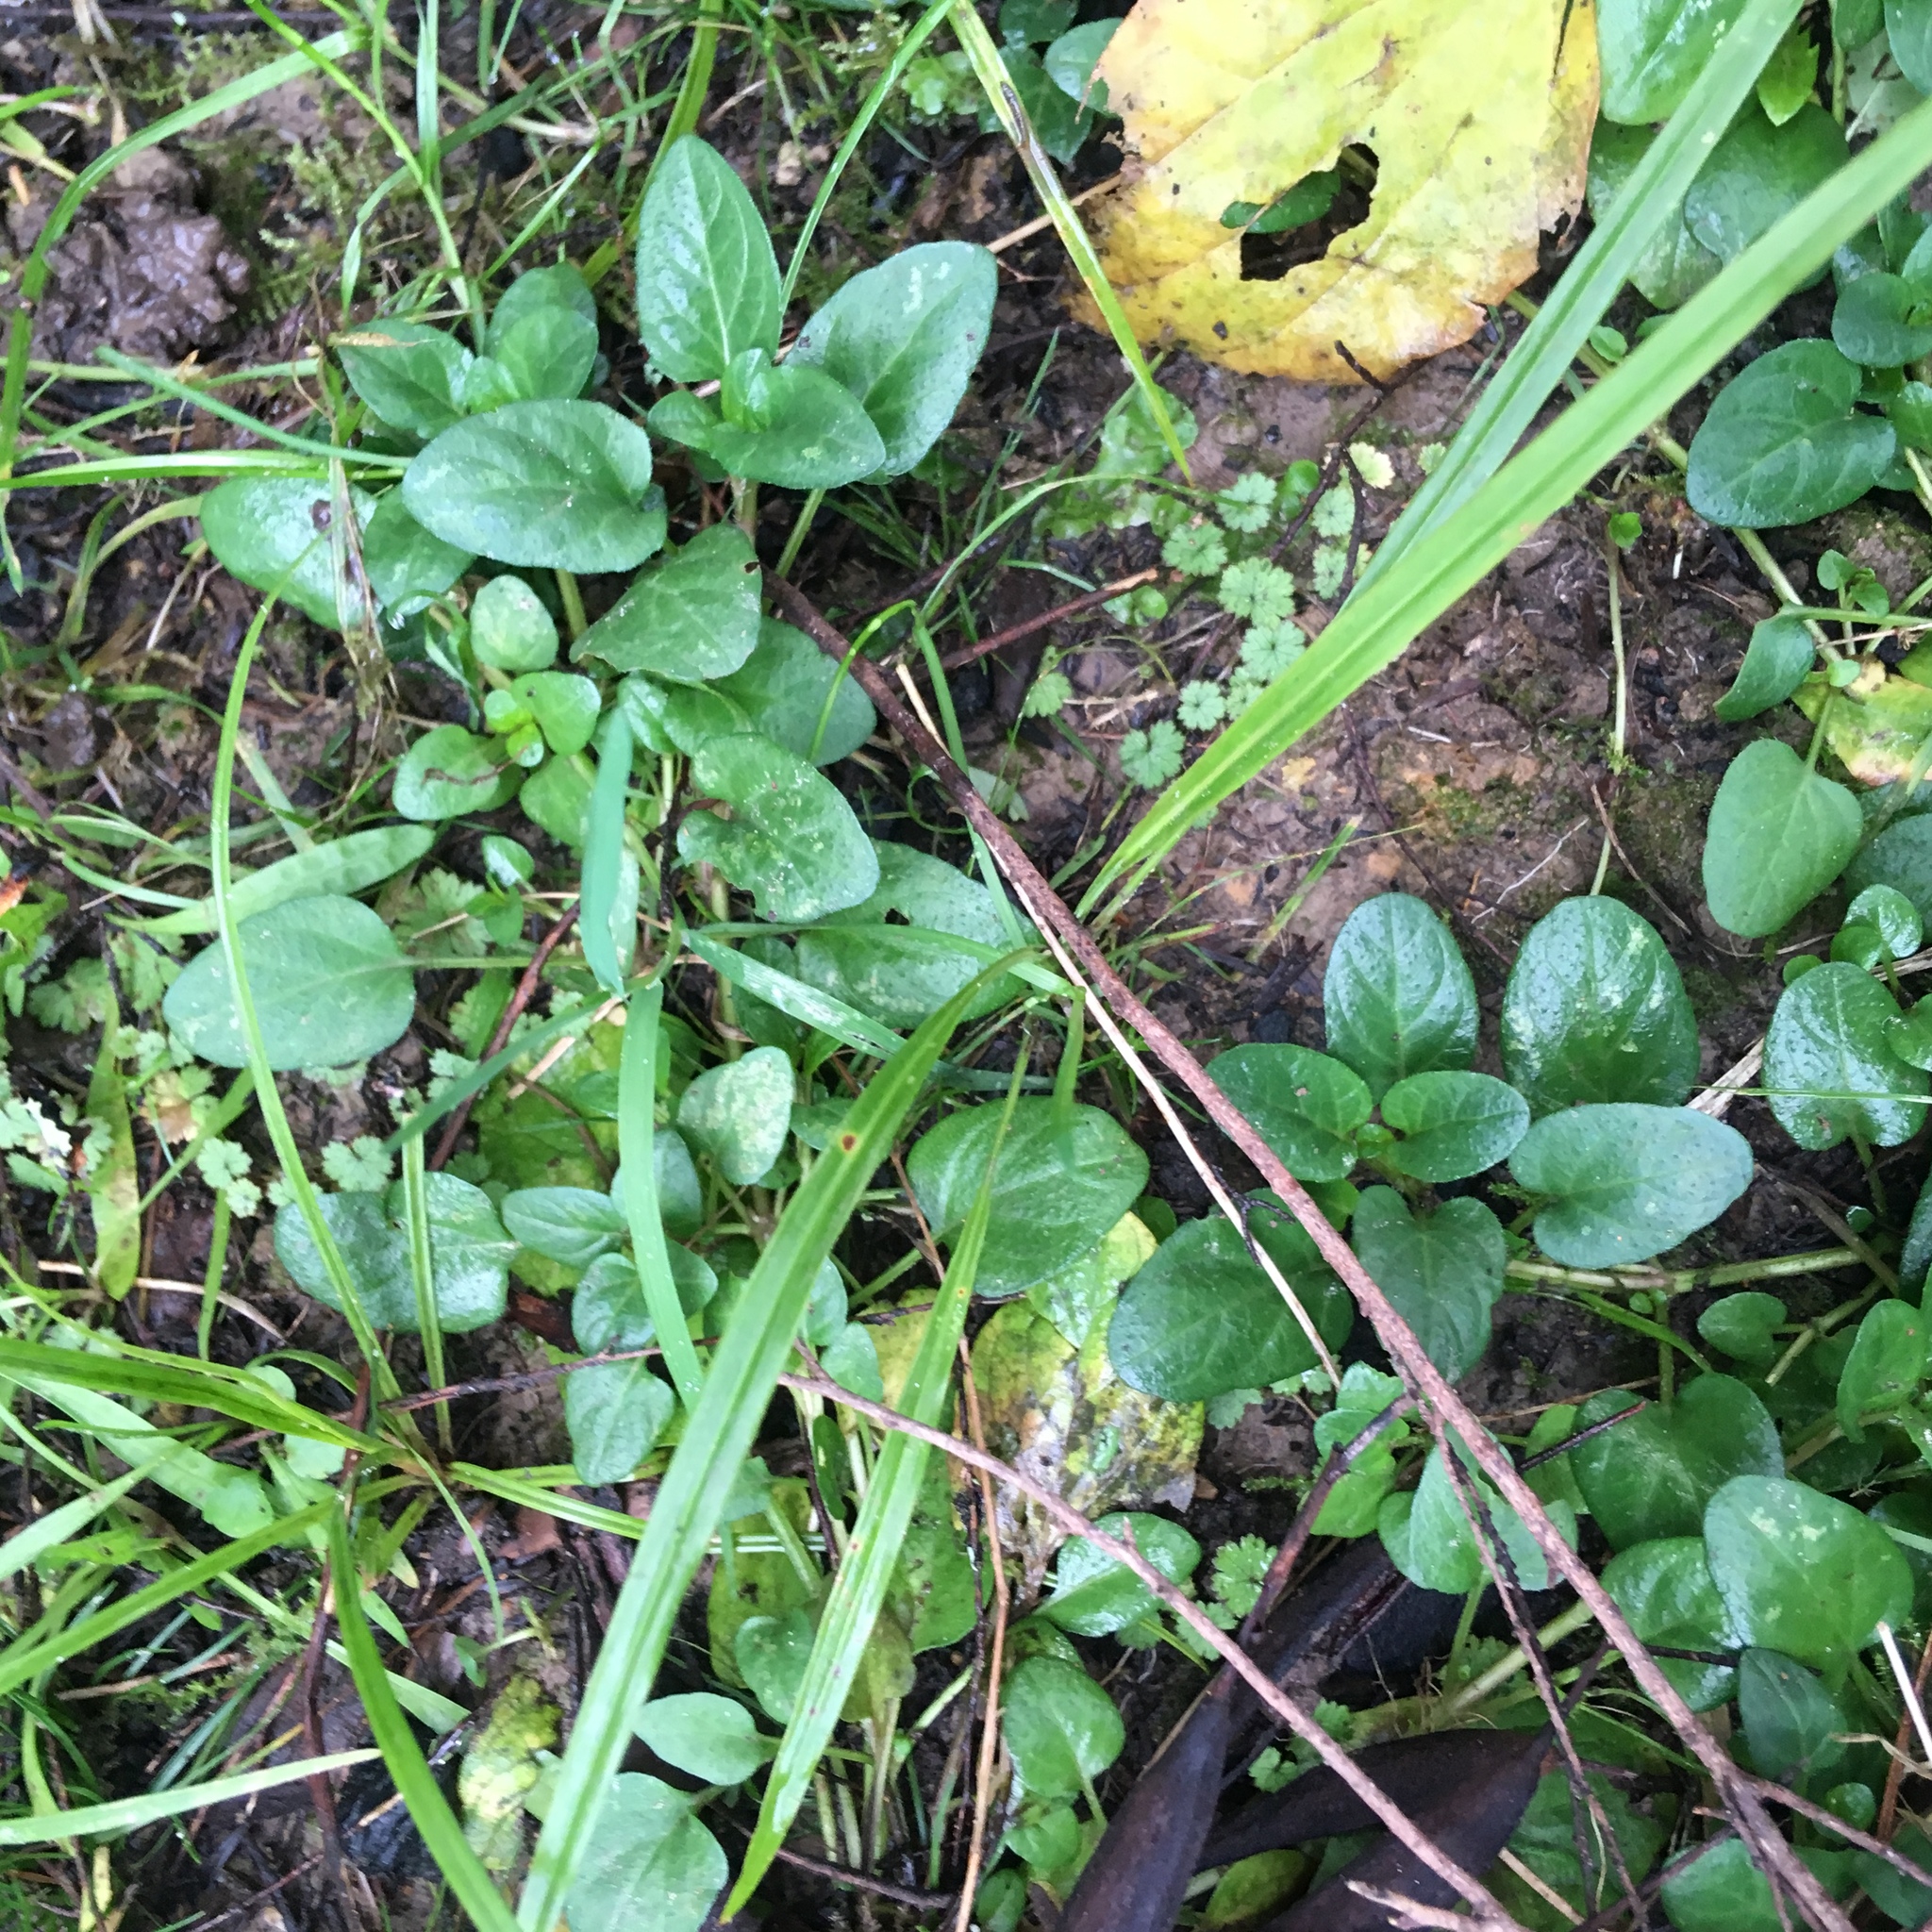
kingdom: Plantae
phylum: Tracheophyta
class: Magnoliopsida
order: Lamiales
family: Lamiaceae
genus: Prunella
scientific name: Prunella vulgaris
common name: Heal-all
